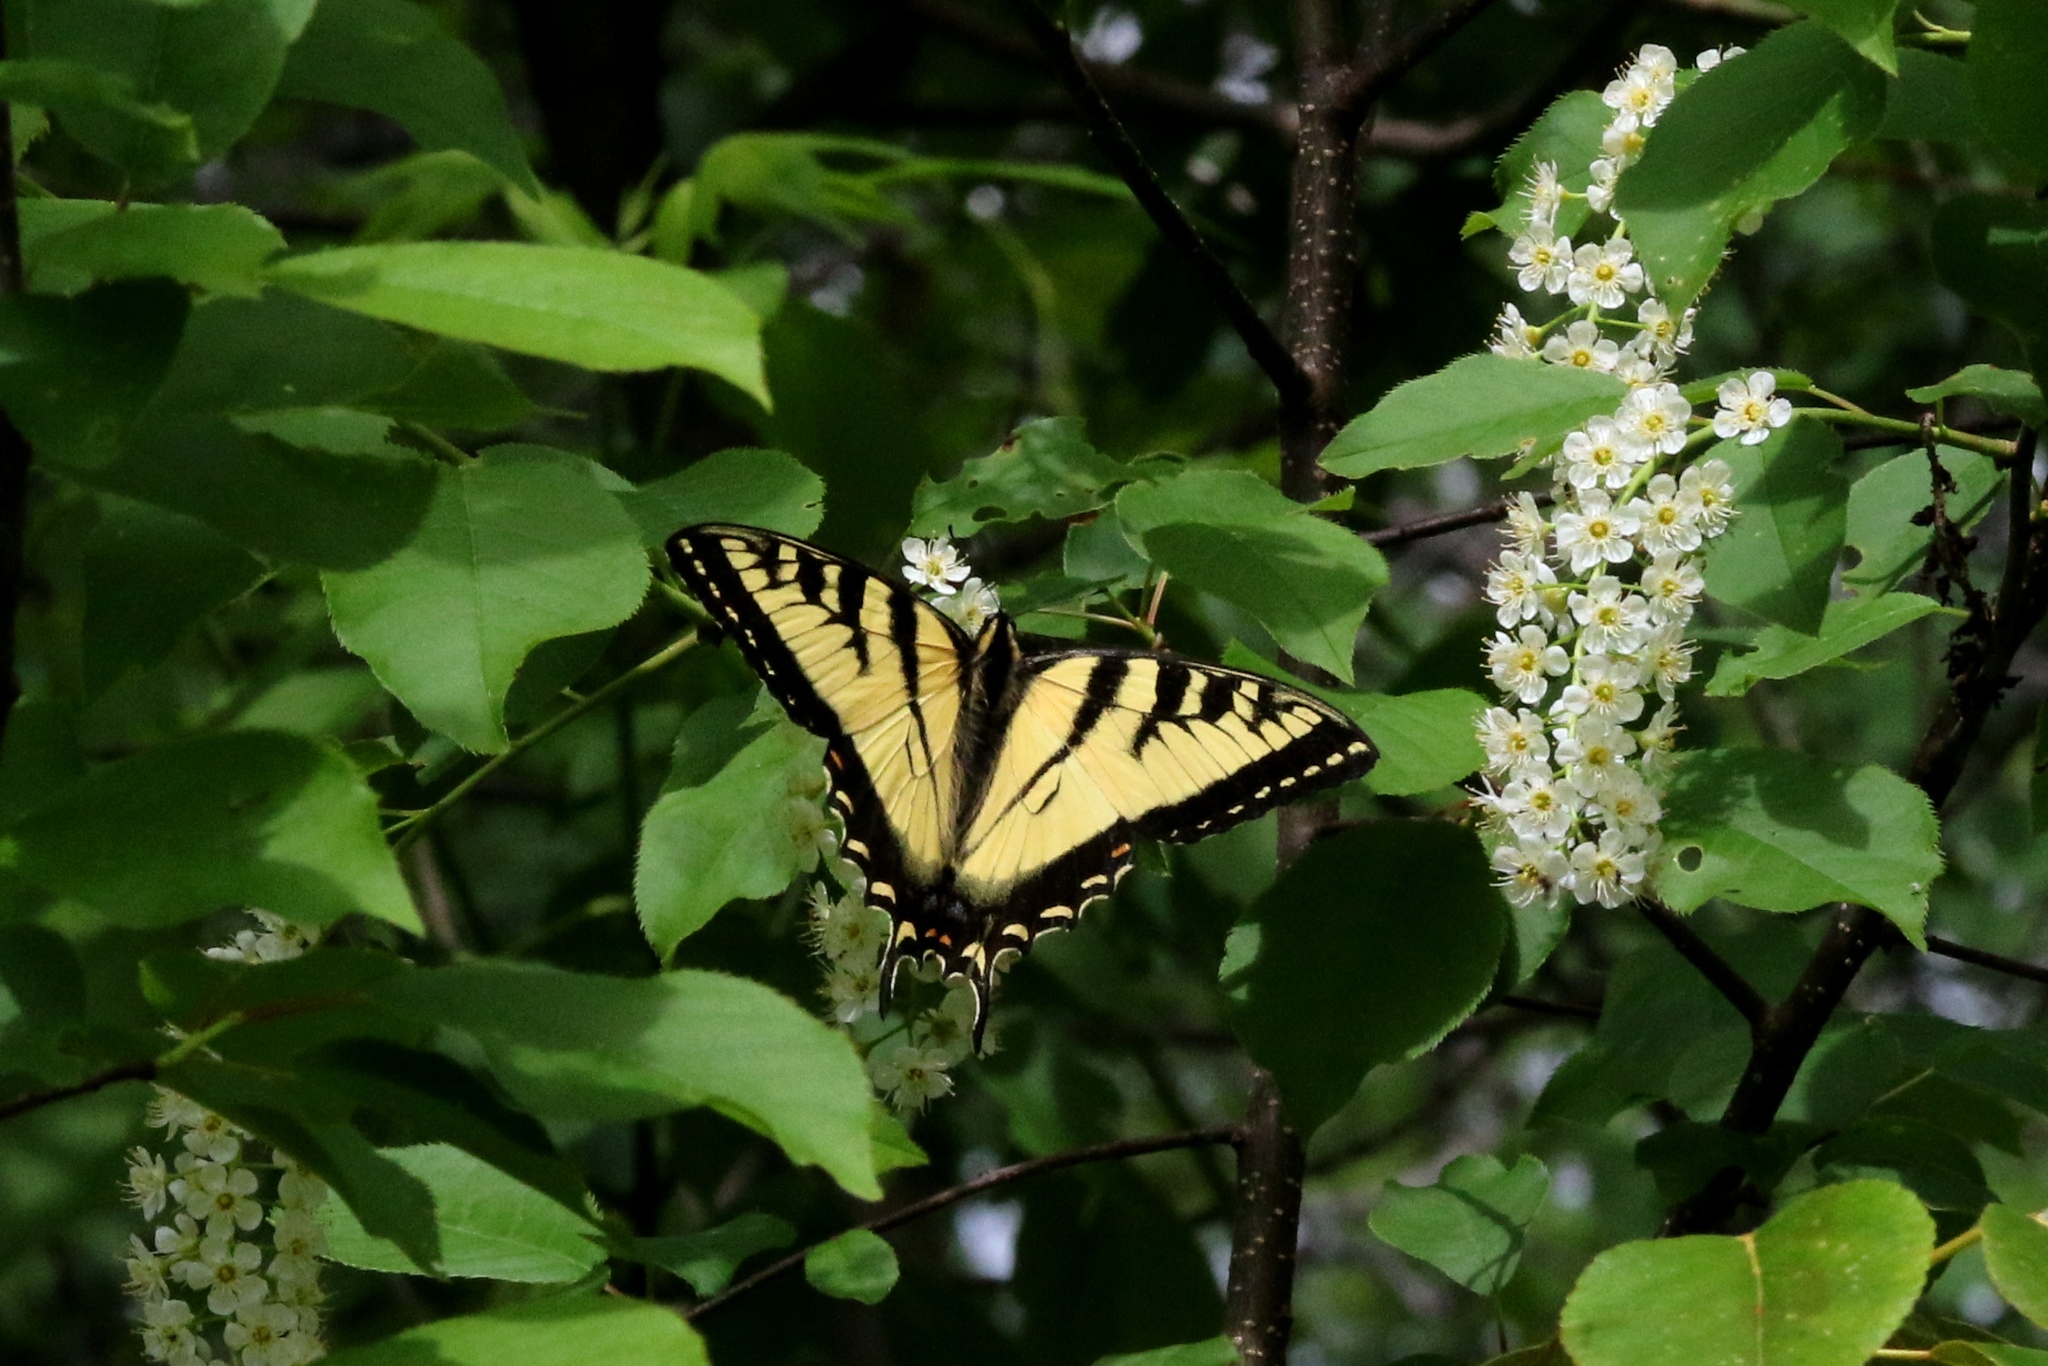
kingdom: Animalia
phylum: Arthropoda
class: Insecta
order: Lepidoptera
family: Papilionidae
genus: Papilio
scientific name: Papilio canadensis
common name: Canadian tiger swallowtail
